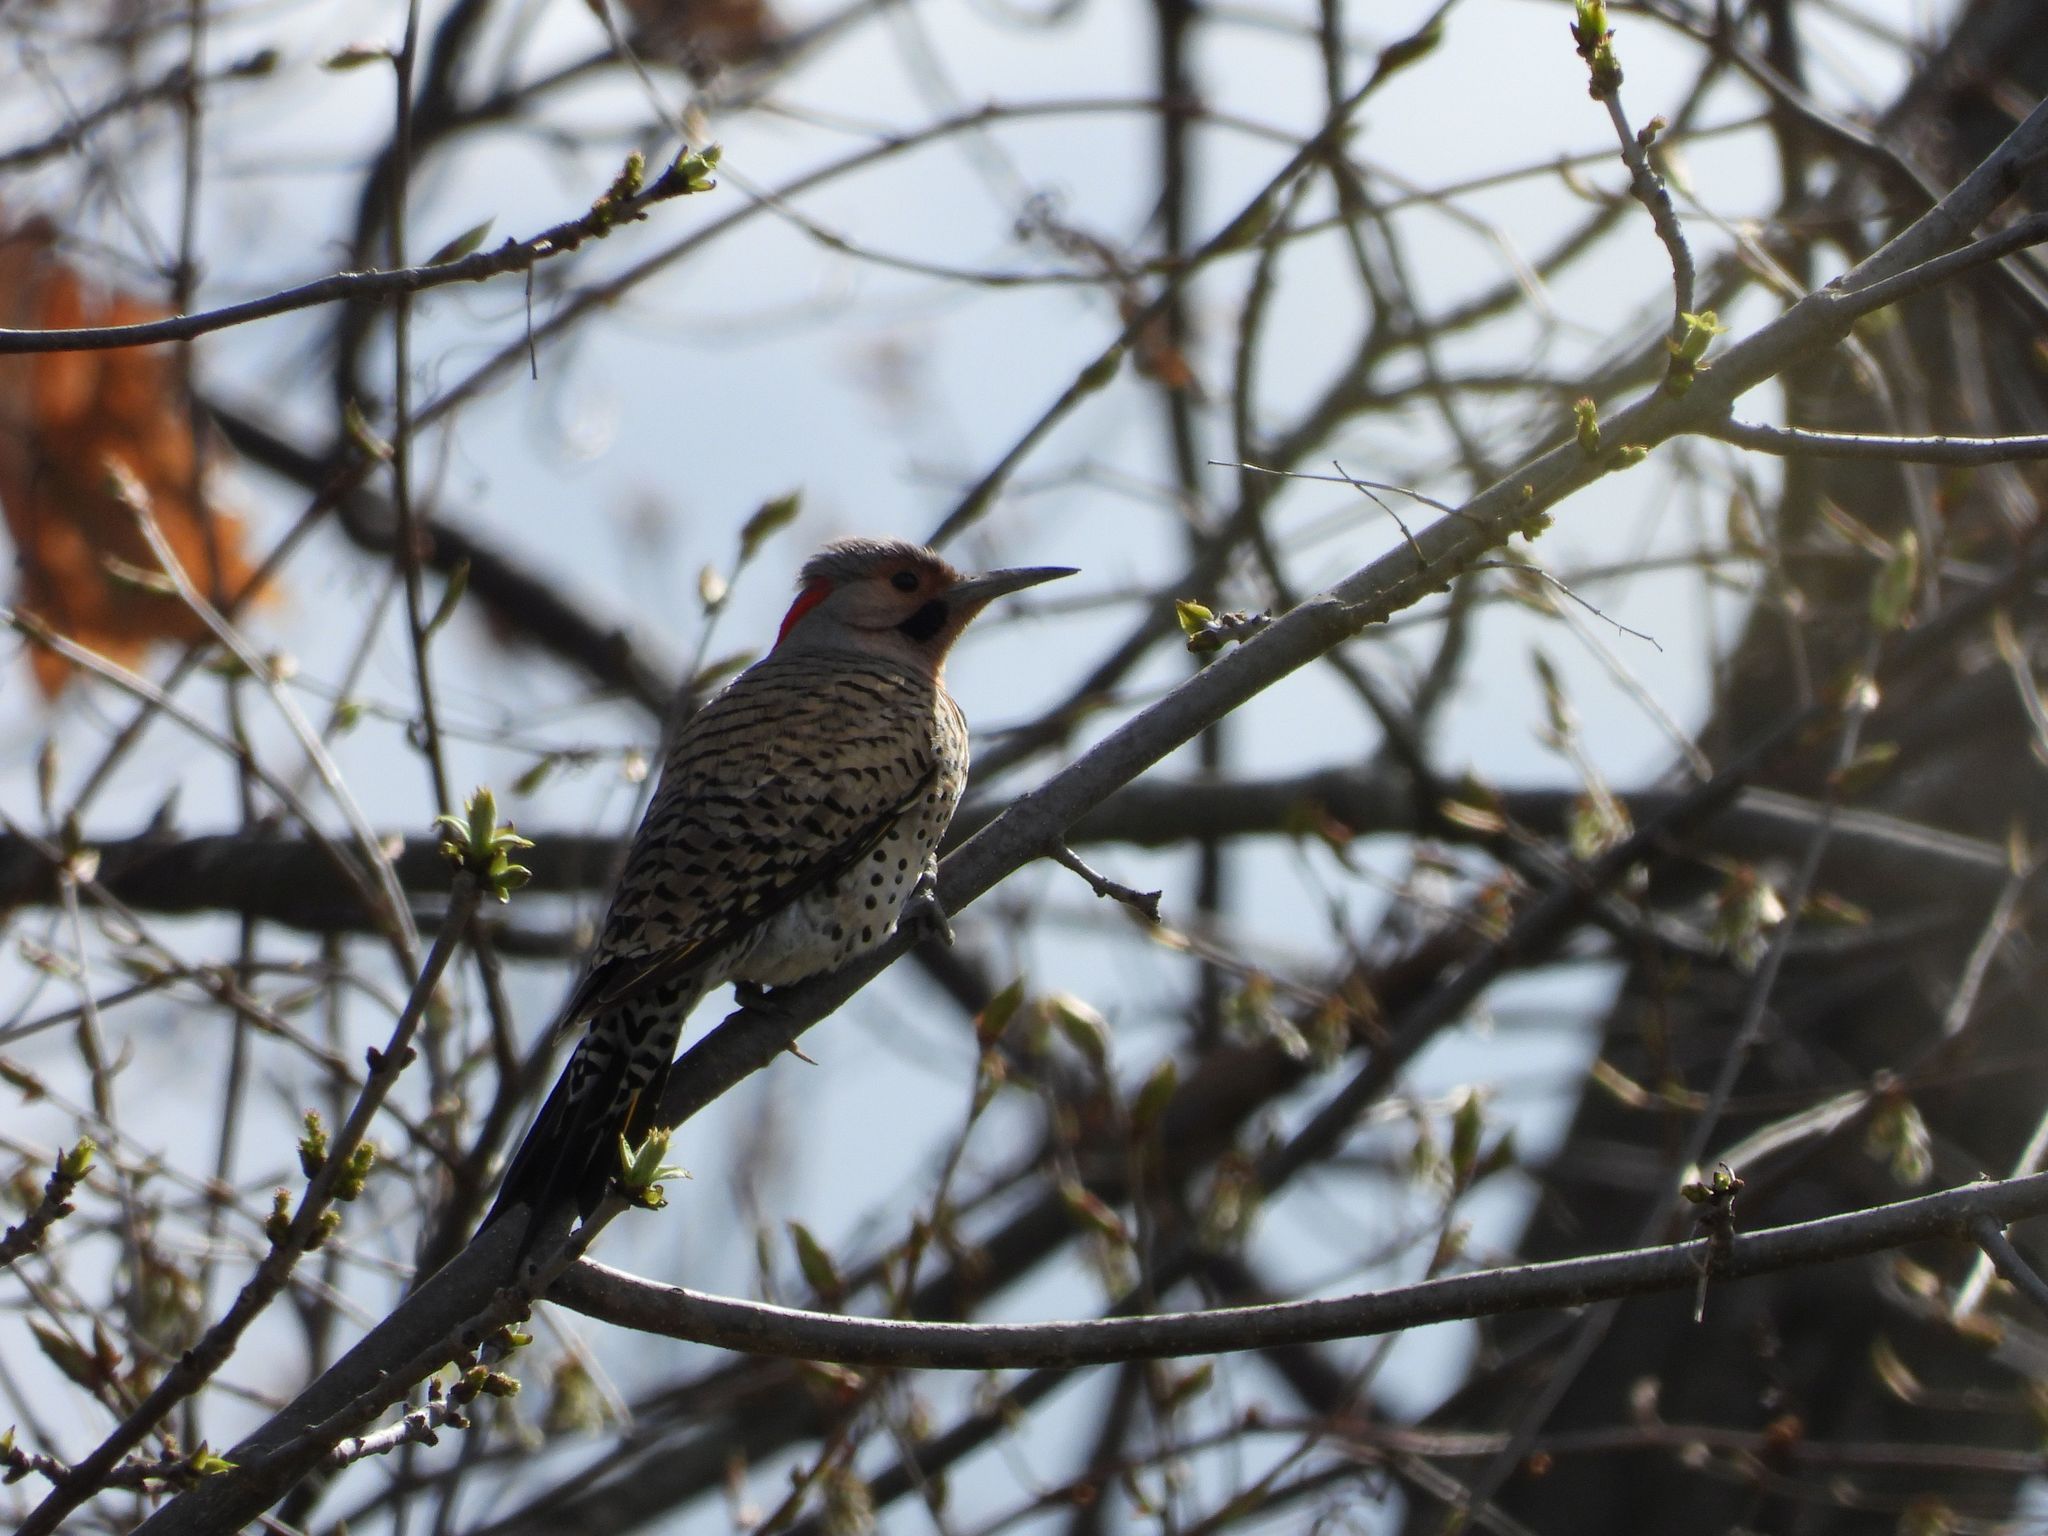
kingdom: Animalia
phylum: Chordata
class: Aves
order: Piciformes
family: Picidae
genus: Colaptes
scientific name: Colaptes auratus
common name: Northern flicker
